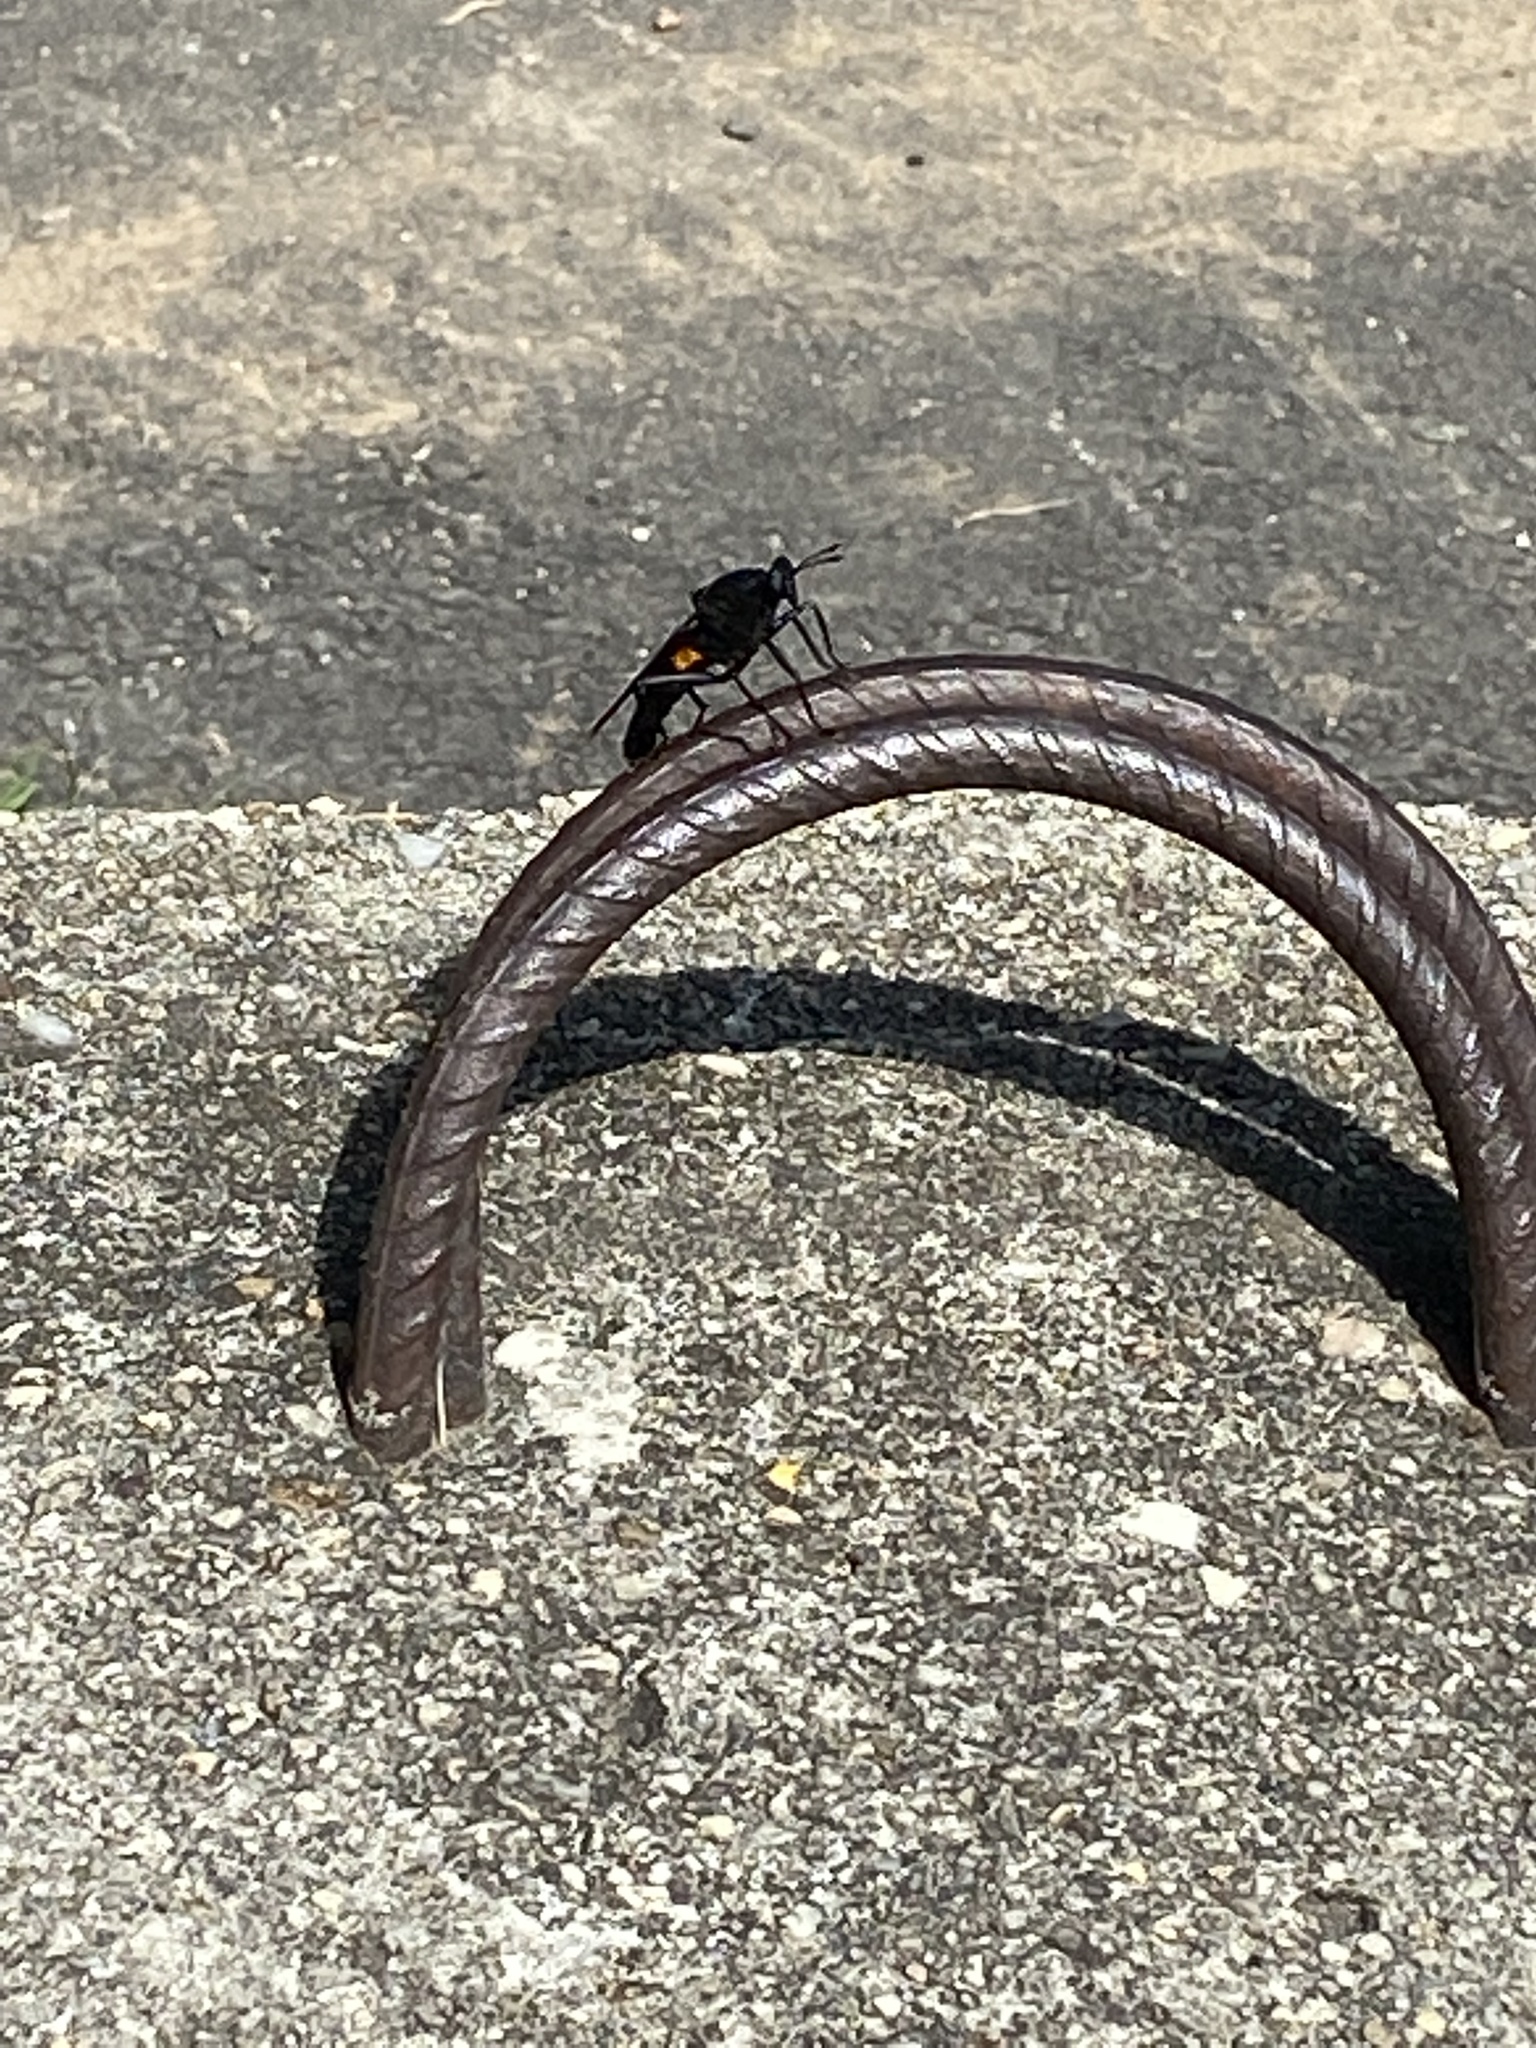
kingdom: Animalia
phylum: Arthropoda
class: Insecta
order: Diptera
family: Mydidae
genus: Mydas
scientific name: Mydas clavatus
